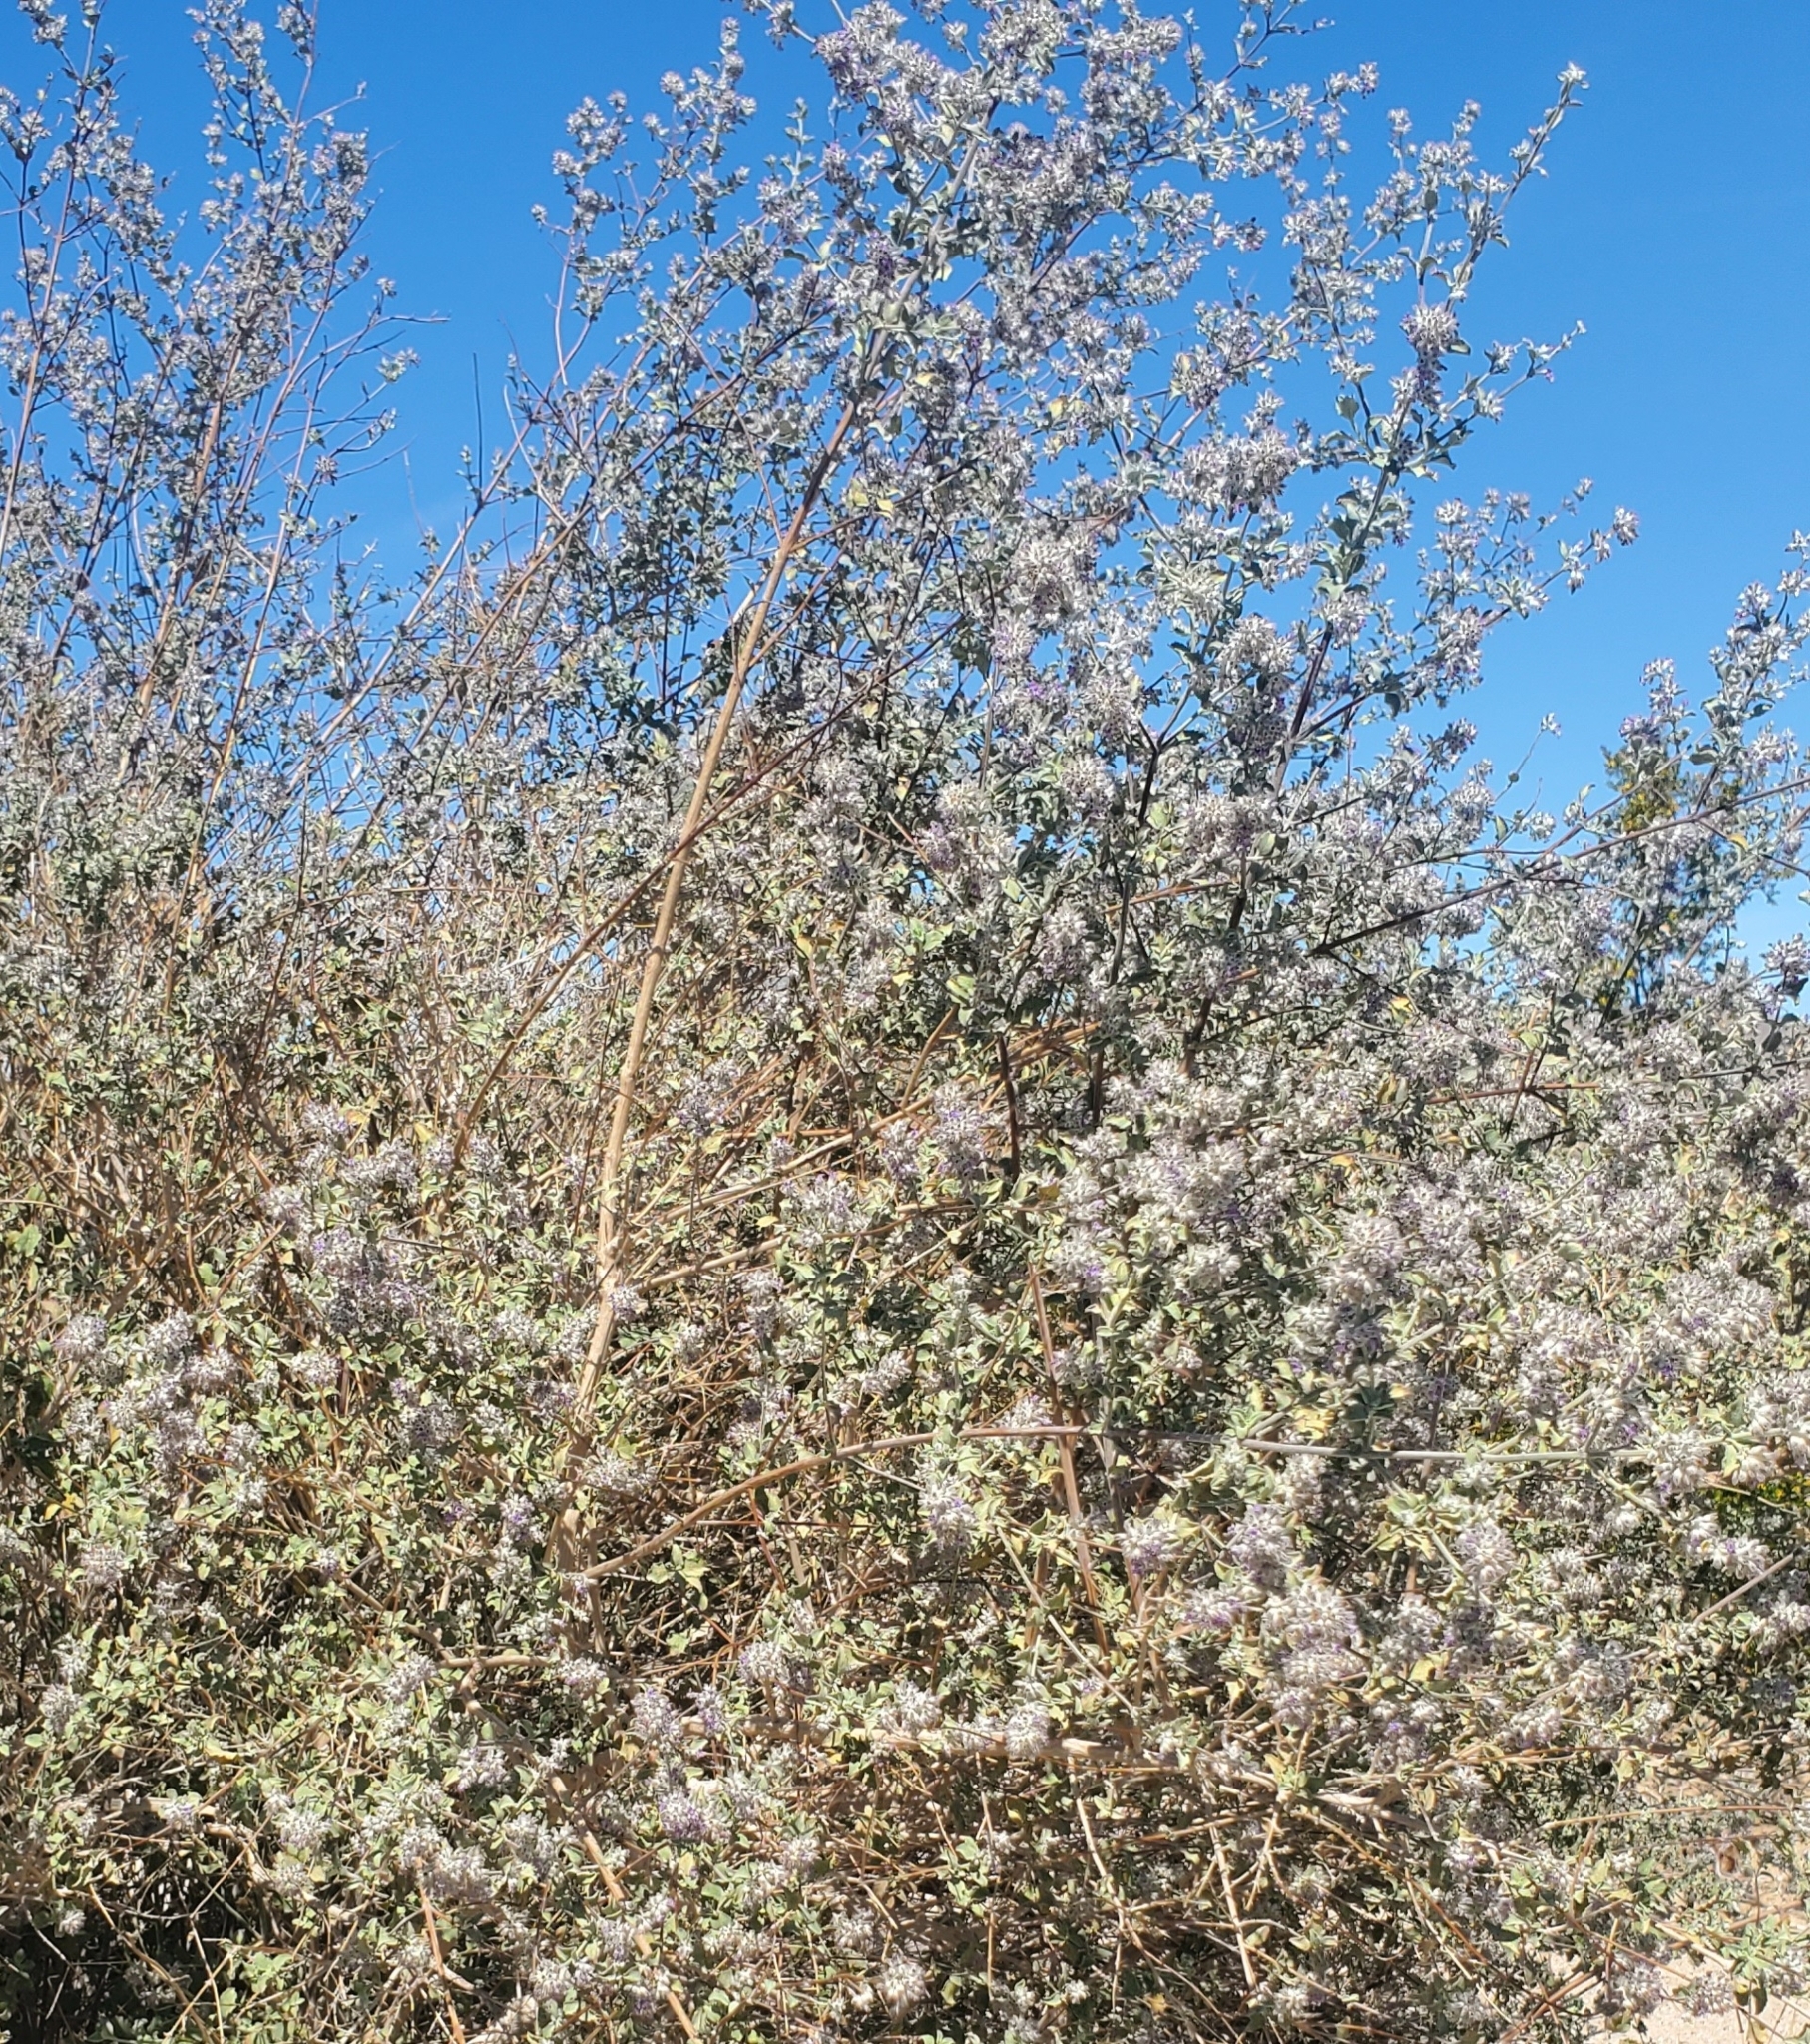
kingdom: Plantae
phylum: Tracheophyta
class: Magnoliopsida
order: Lamiales
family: Lamiaceae
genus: Condea
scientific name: Condea emoryi
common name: Chia
